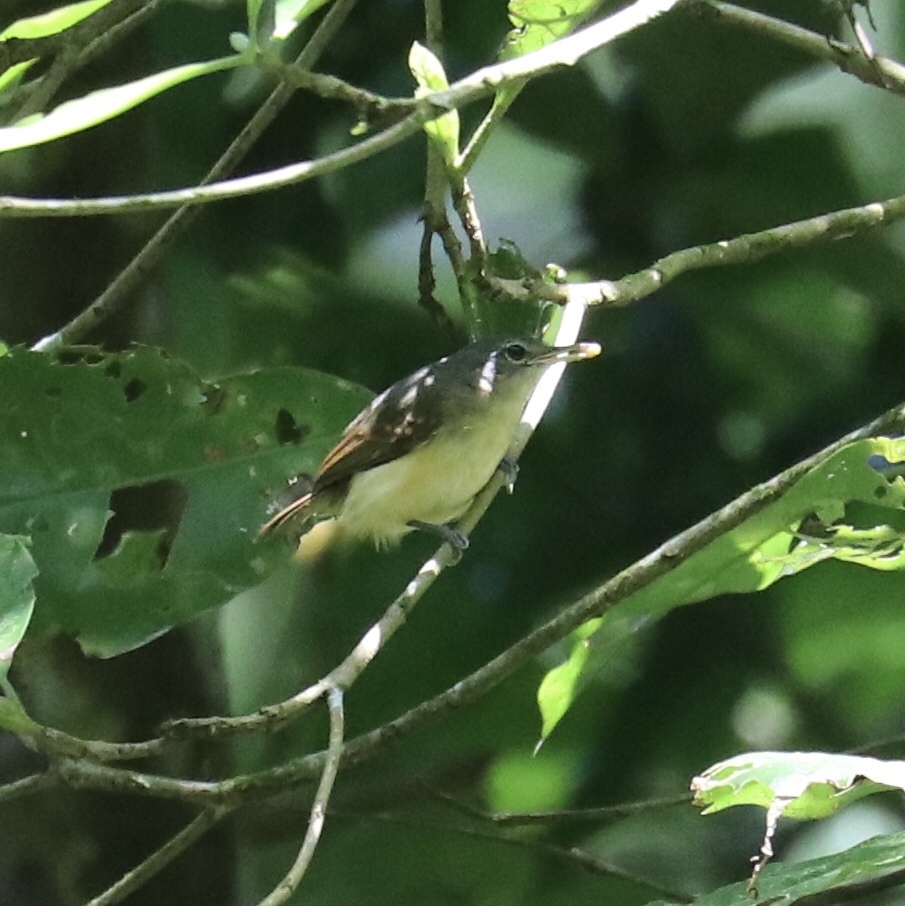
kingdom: Animalia
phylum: Chordata
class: Aves
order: Passeriformes
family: Thamnophilidae
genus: Myrmotherula
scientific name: Myrmotherula axillaris
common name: White-flanked antwren
